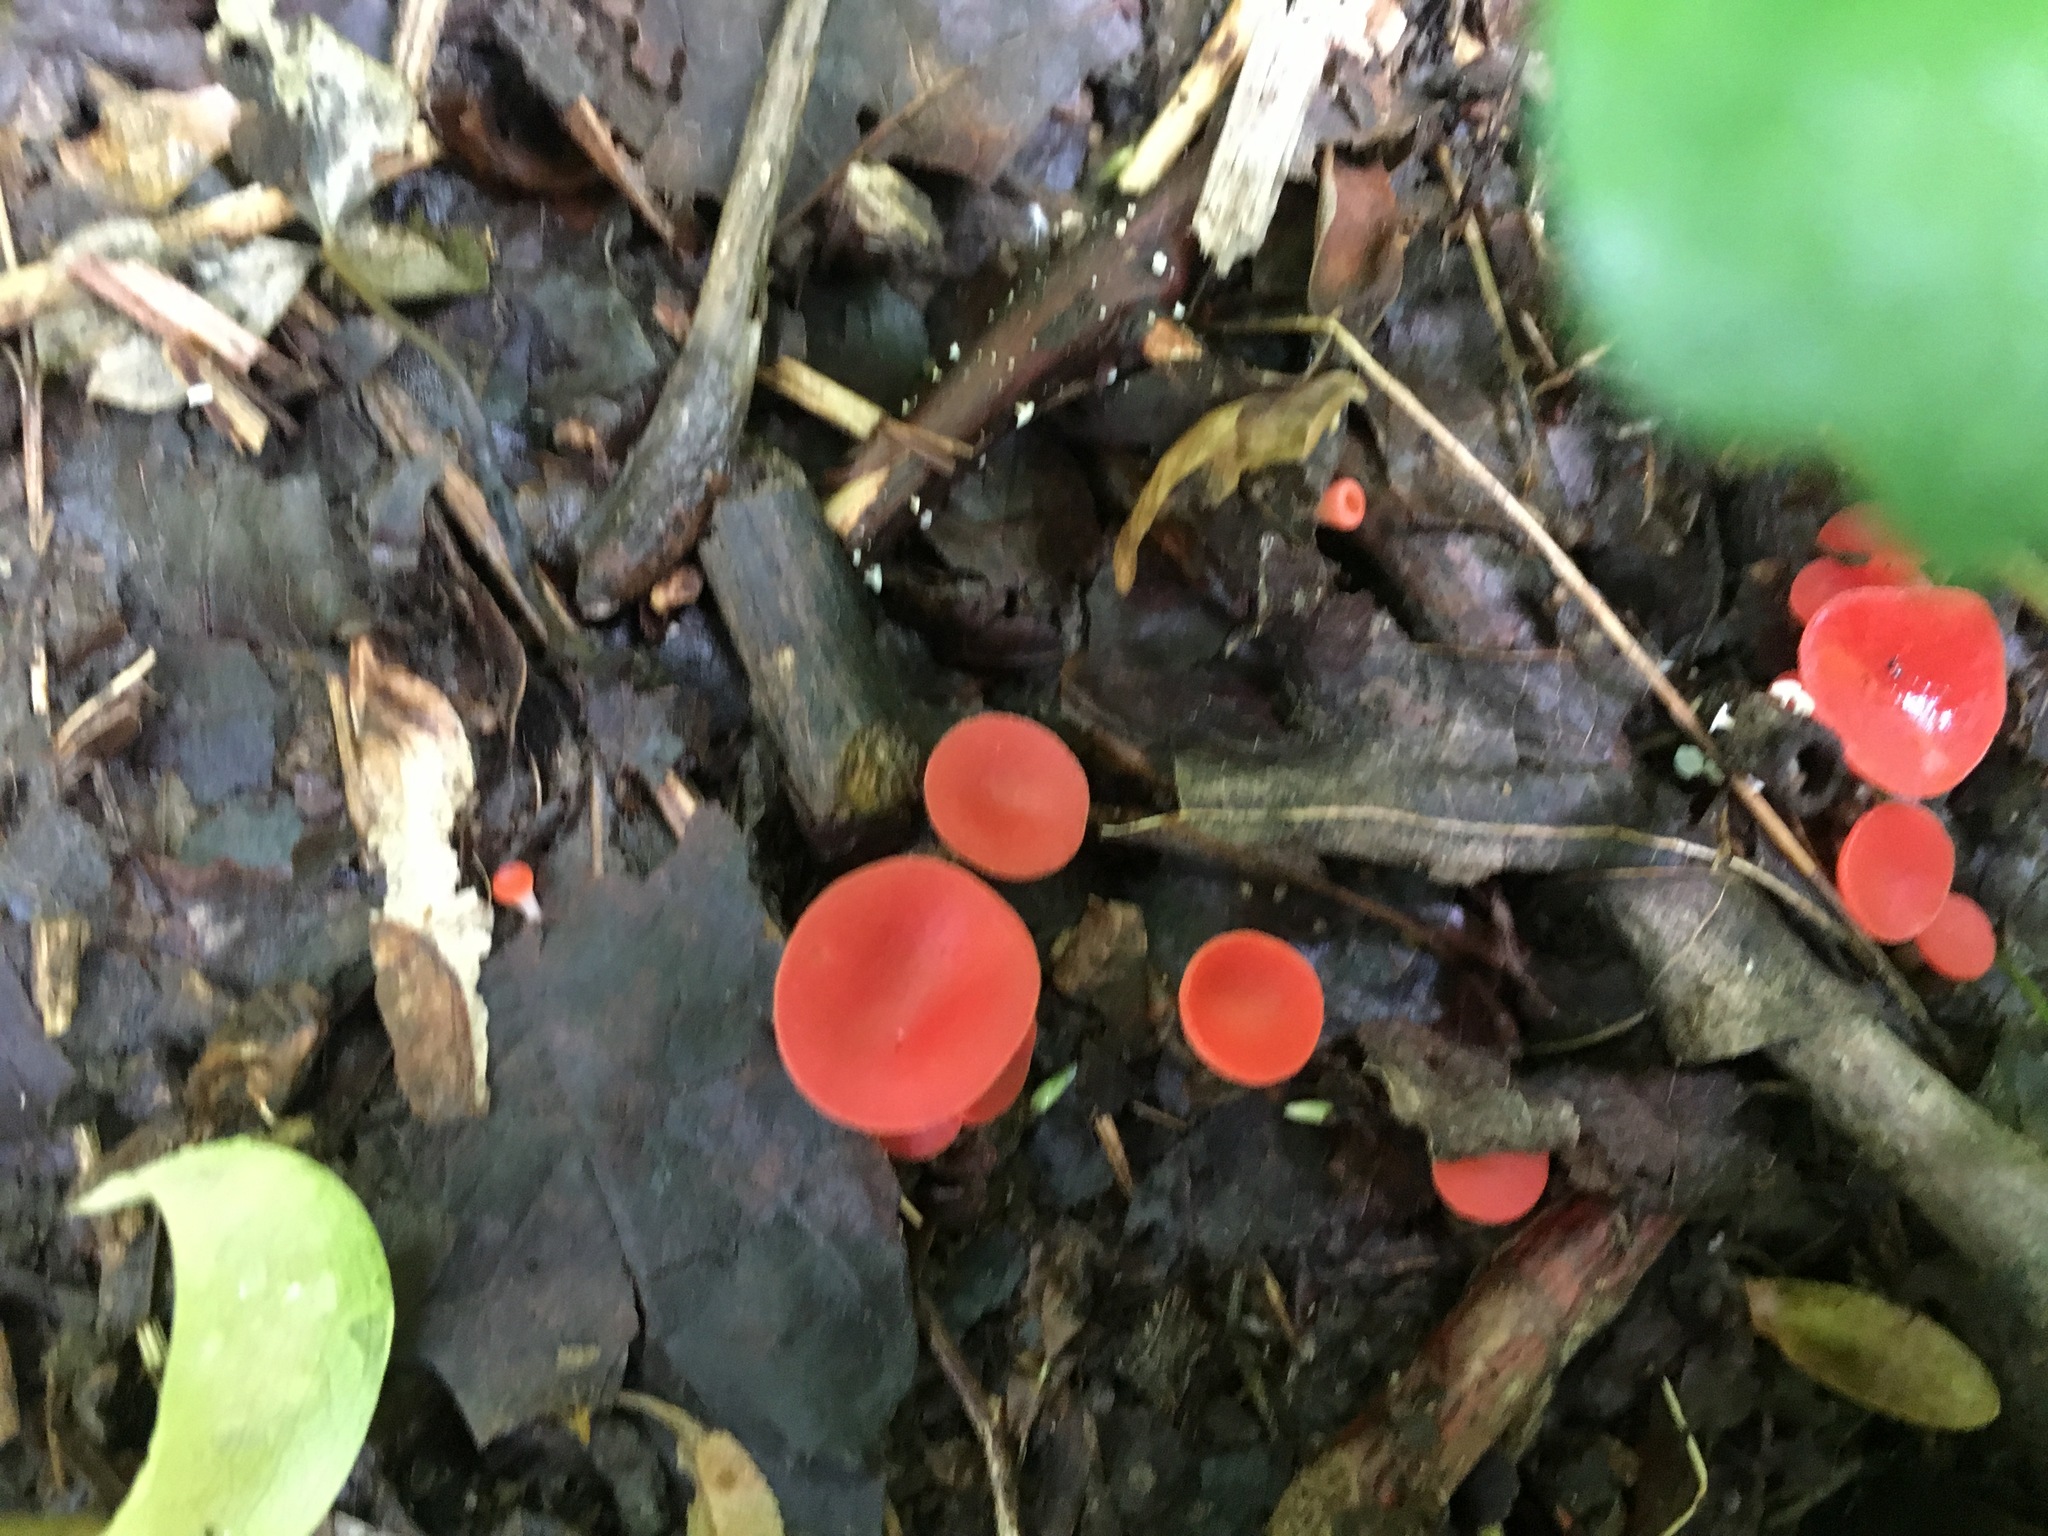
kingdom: Fungi
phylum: Ascomycota
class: Pezizomycetes
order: Pezizales
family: Sarcoscyphaceae
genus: Sarcoscypha
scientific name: Sarcoscypha occidentalis
